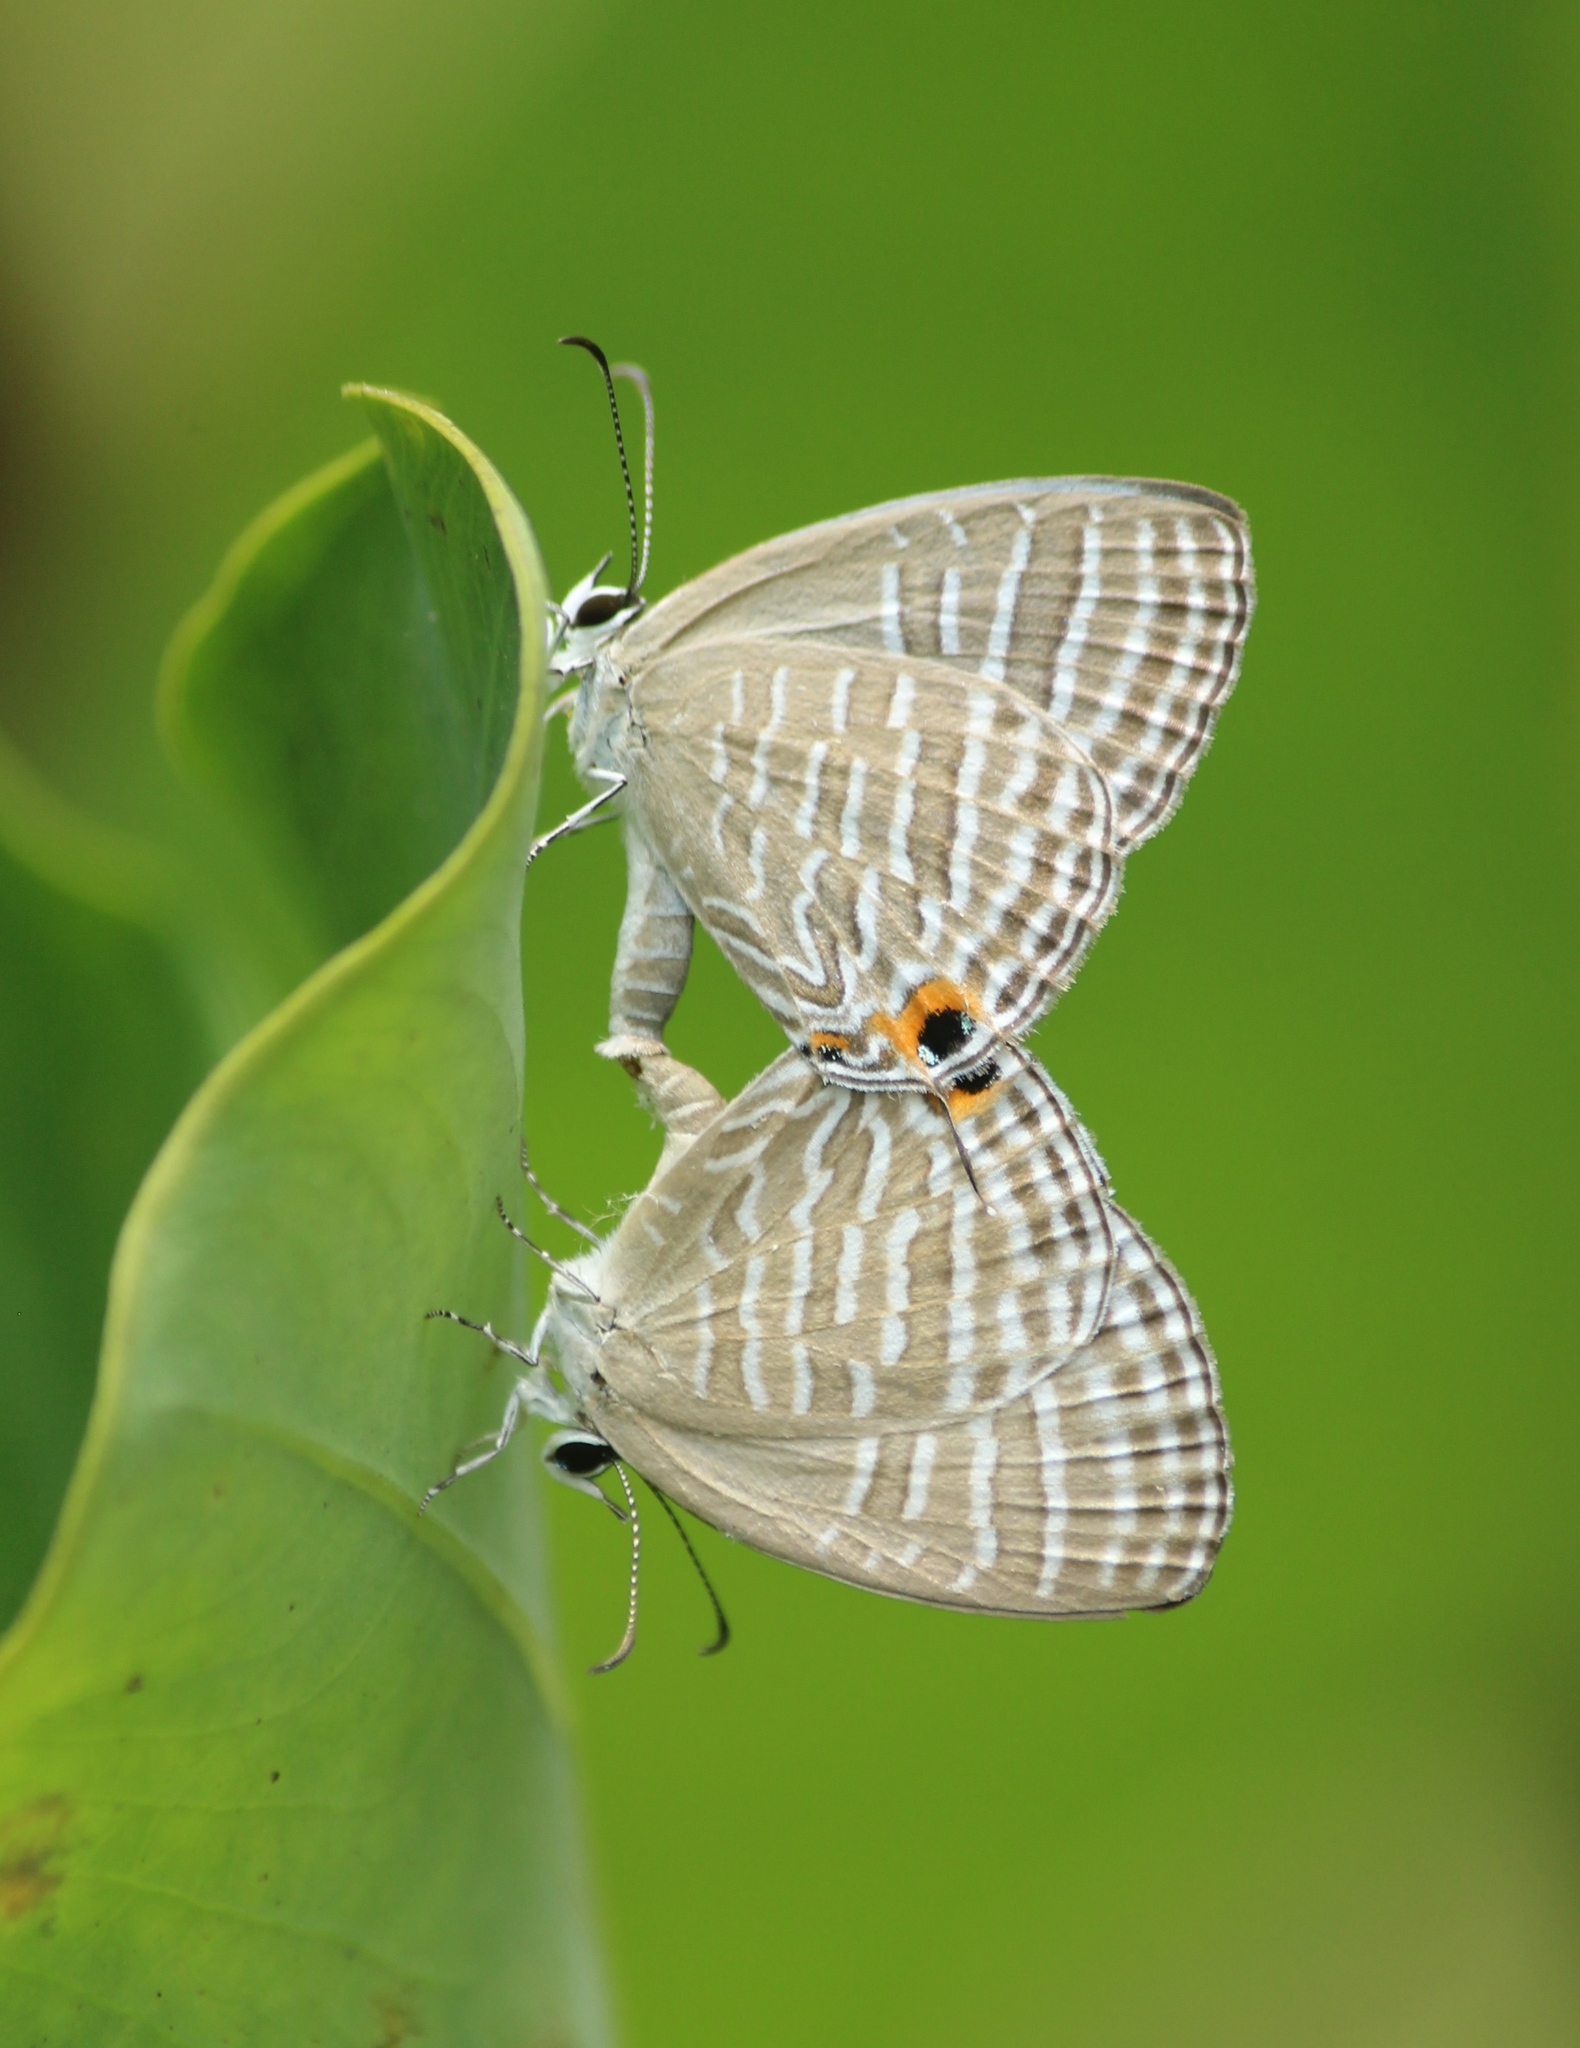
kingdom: Animalia
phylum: Arthropoda
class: Insecta
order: Lepidoptera
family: Lycaenidae
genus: Jamides
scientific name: Jamides celeno
